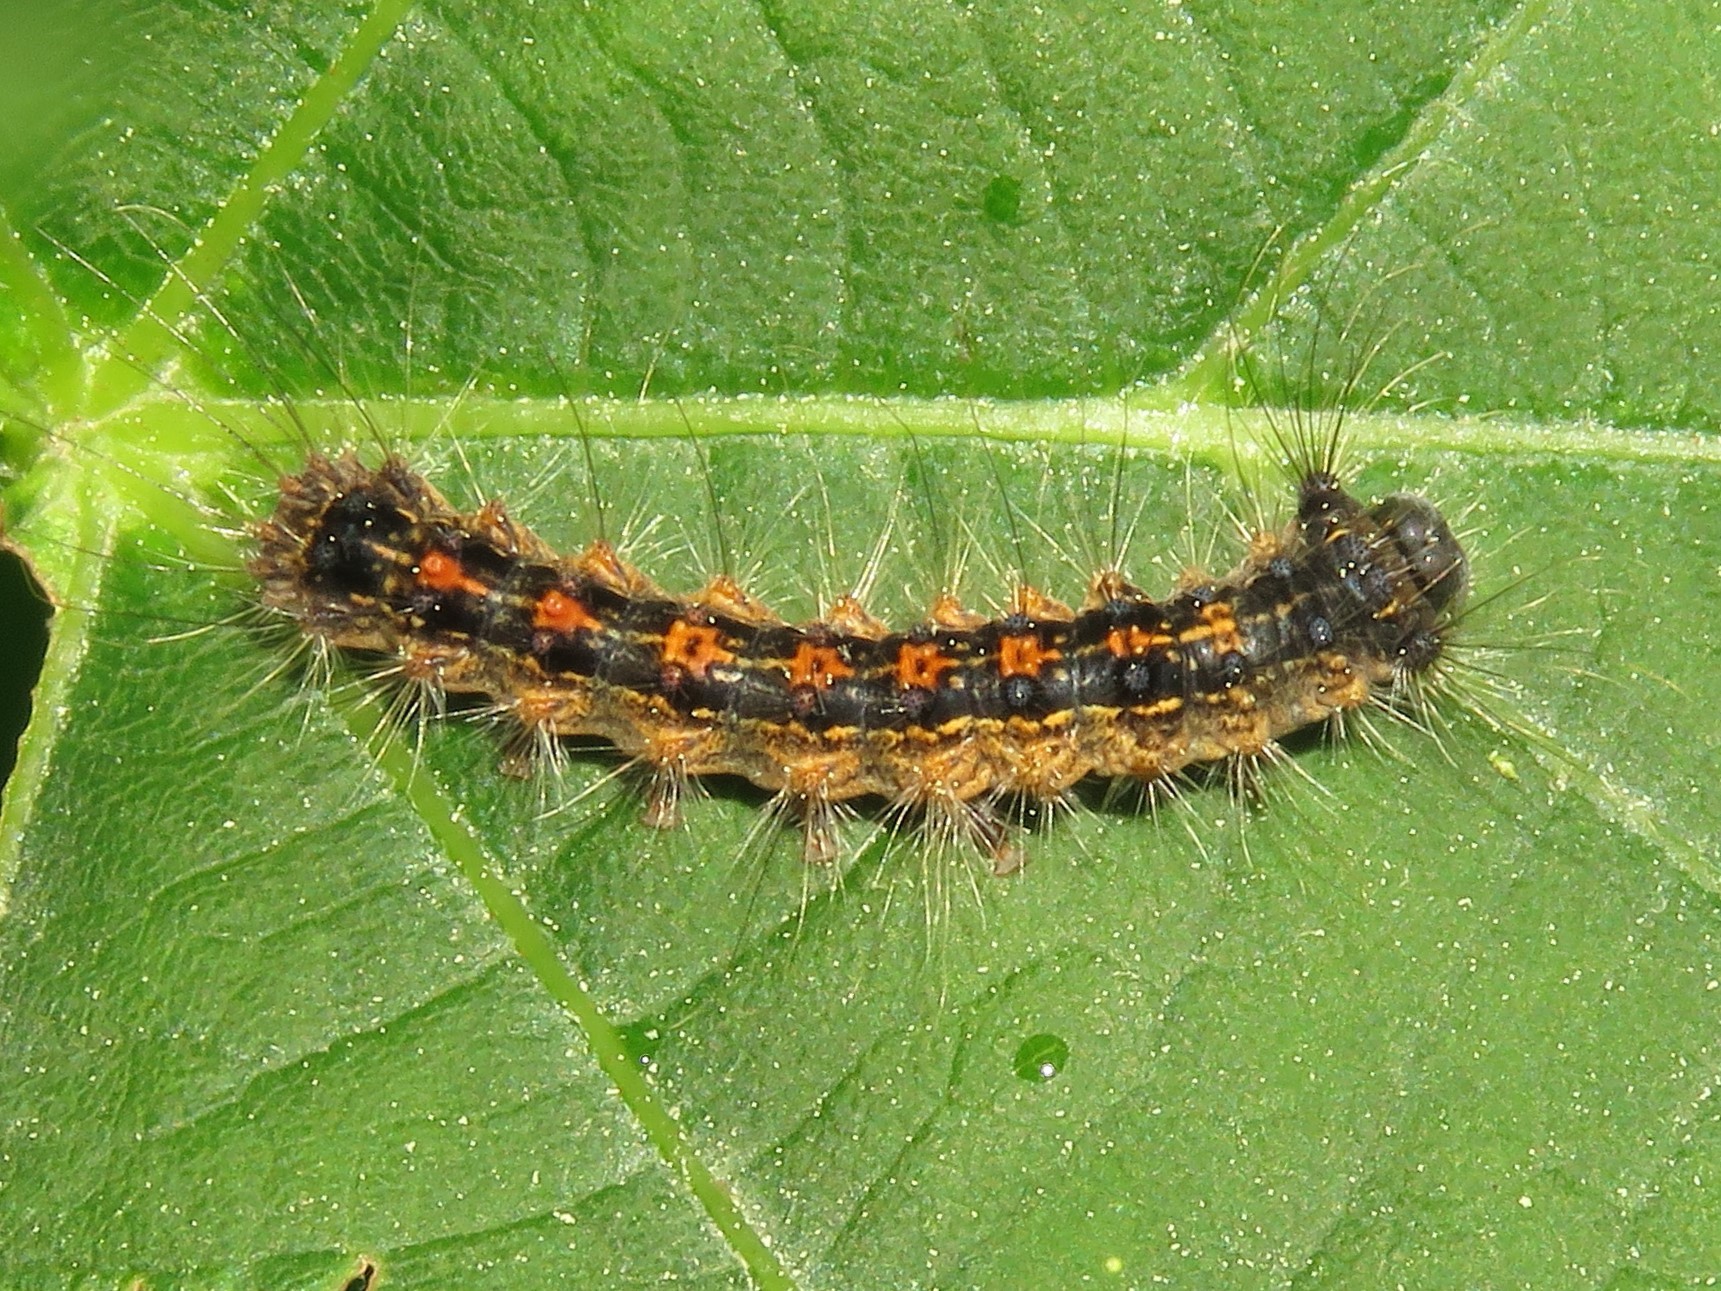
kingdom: Animalia
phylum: Arthropoda
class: Insecta
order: Lepidoptera
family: Erebidae
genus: Lymantria
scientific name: Lymantria dispar
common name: Gypsy moth
